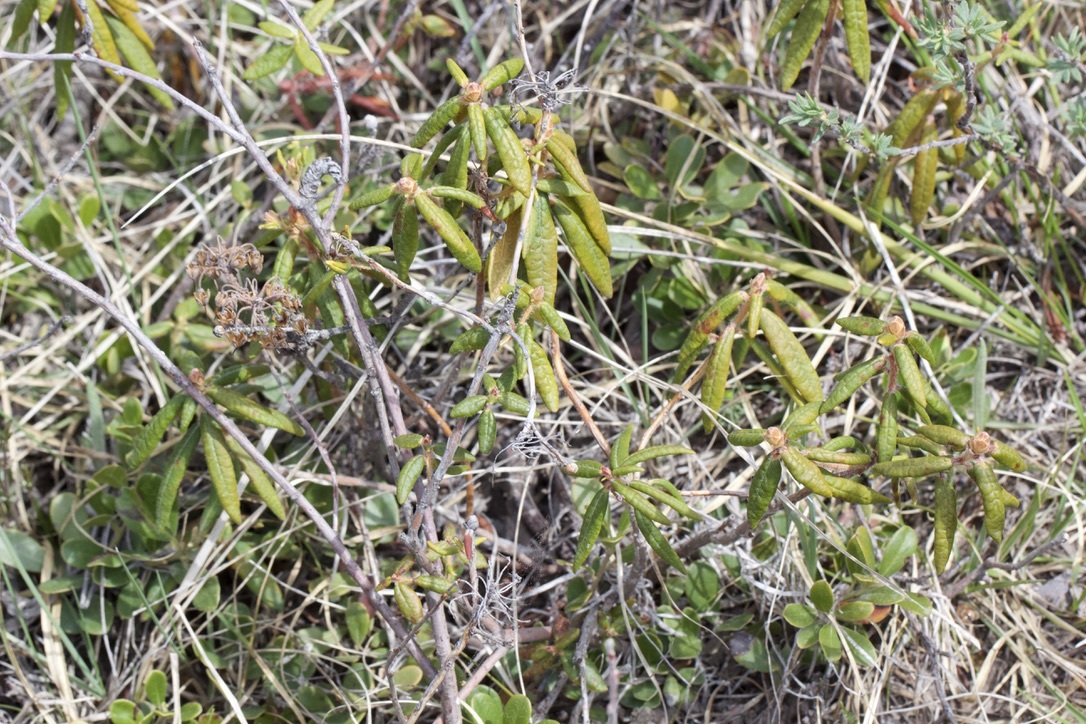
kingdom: Plantae
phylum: Tracheophyta
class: Magnoliopsida
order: Ericales
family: Ericaceae
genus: Rhododendron
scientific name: Rhododendron groenlandicum
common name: Bog labrador tea
